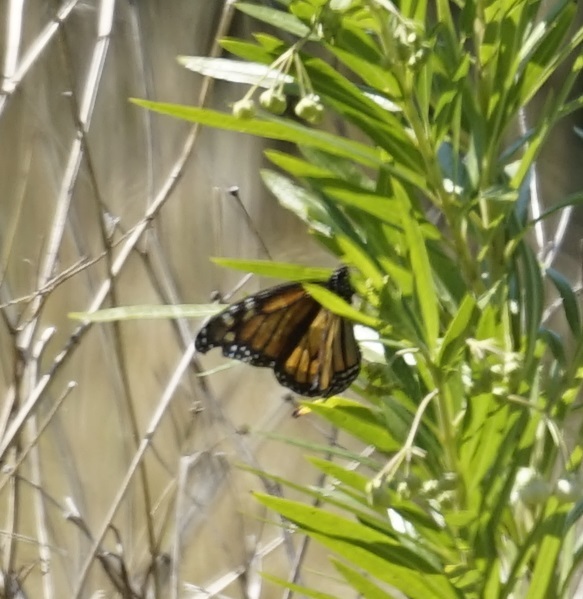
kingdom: Animalia
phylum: Arthropoda
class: Insecta
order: Lepidoptera
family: Nymphalidae
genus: Danaus
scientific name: Danaus plexippus
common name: Monarch
